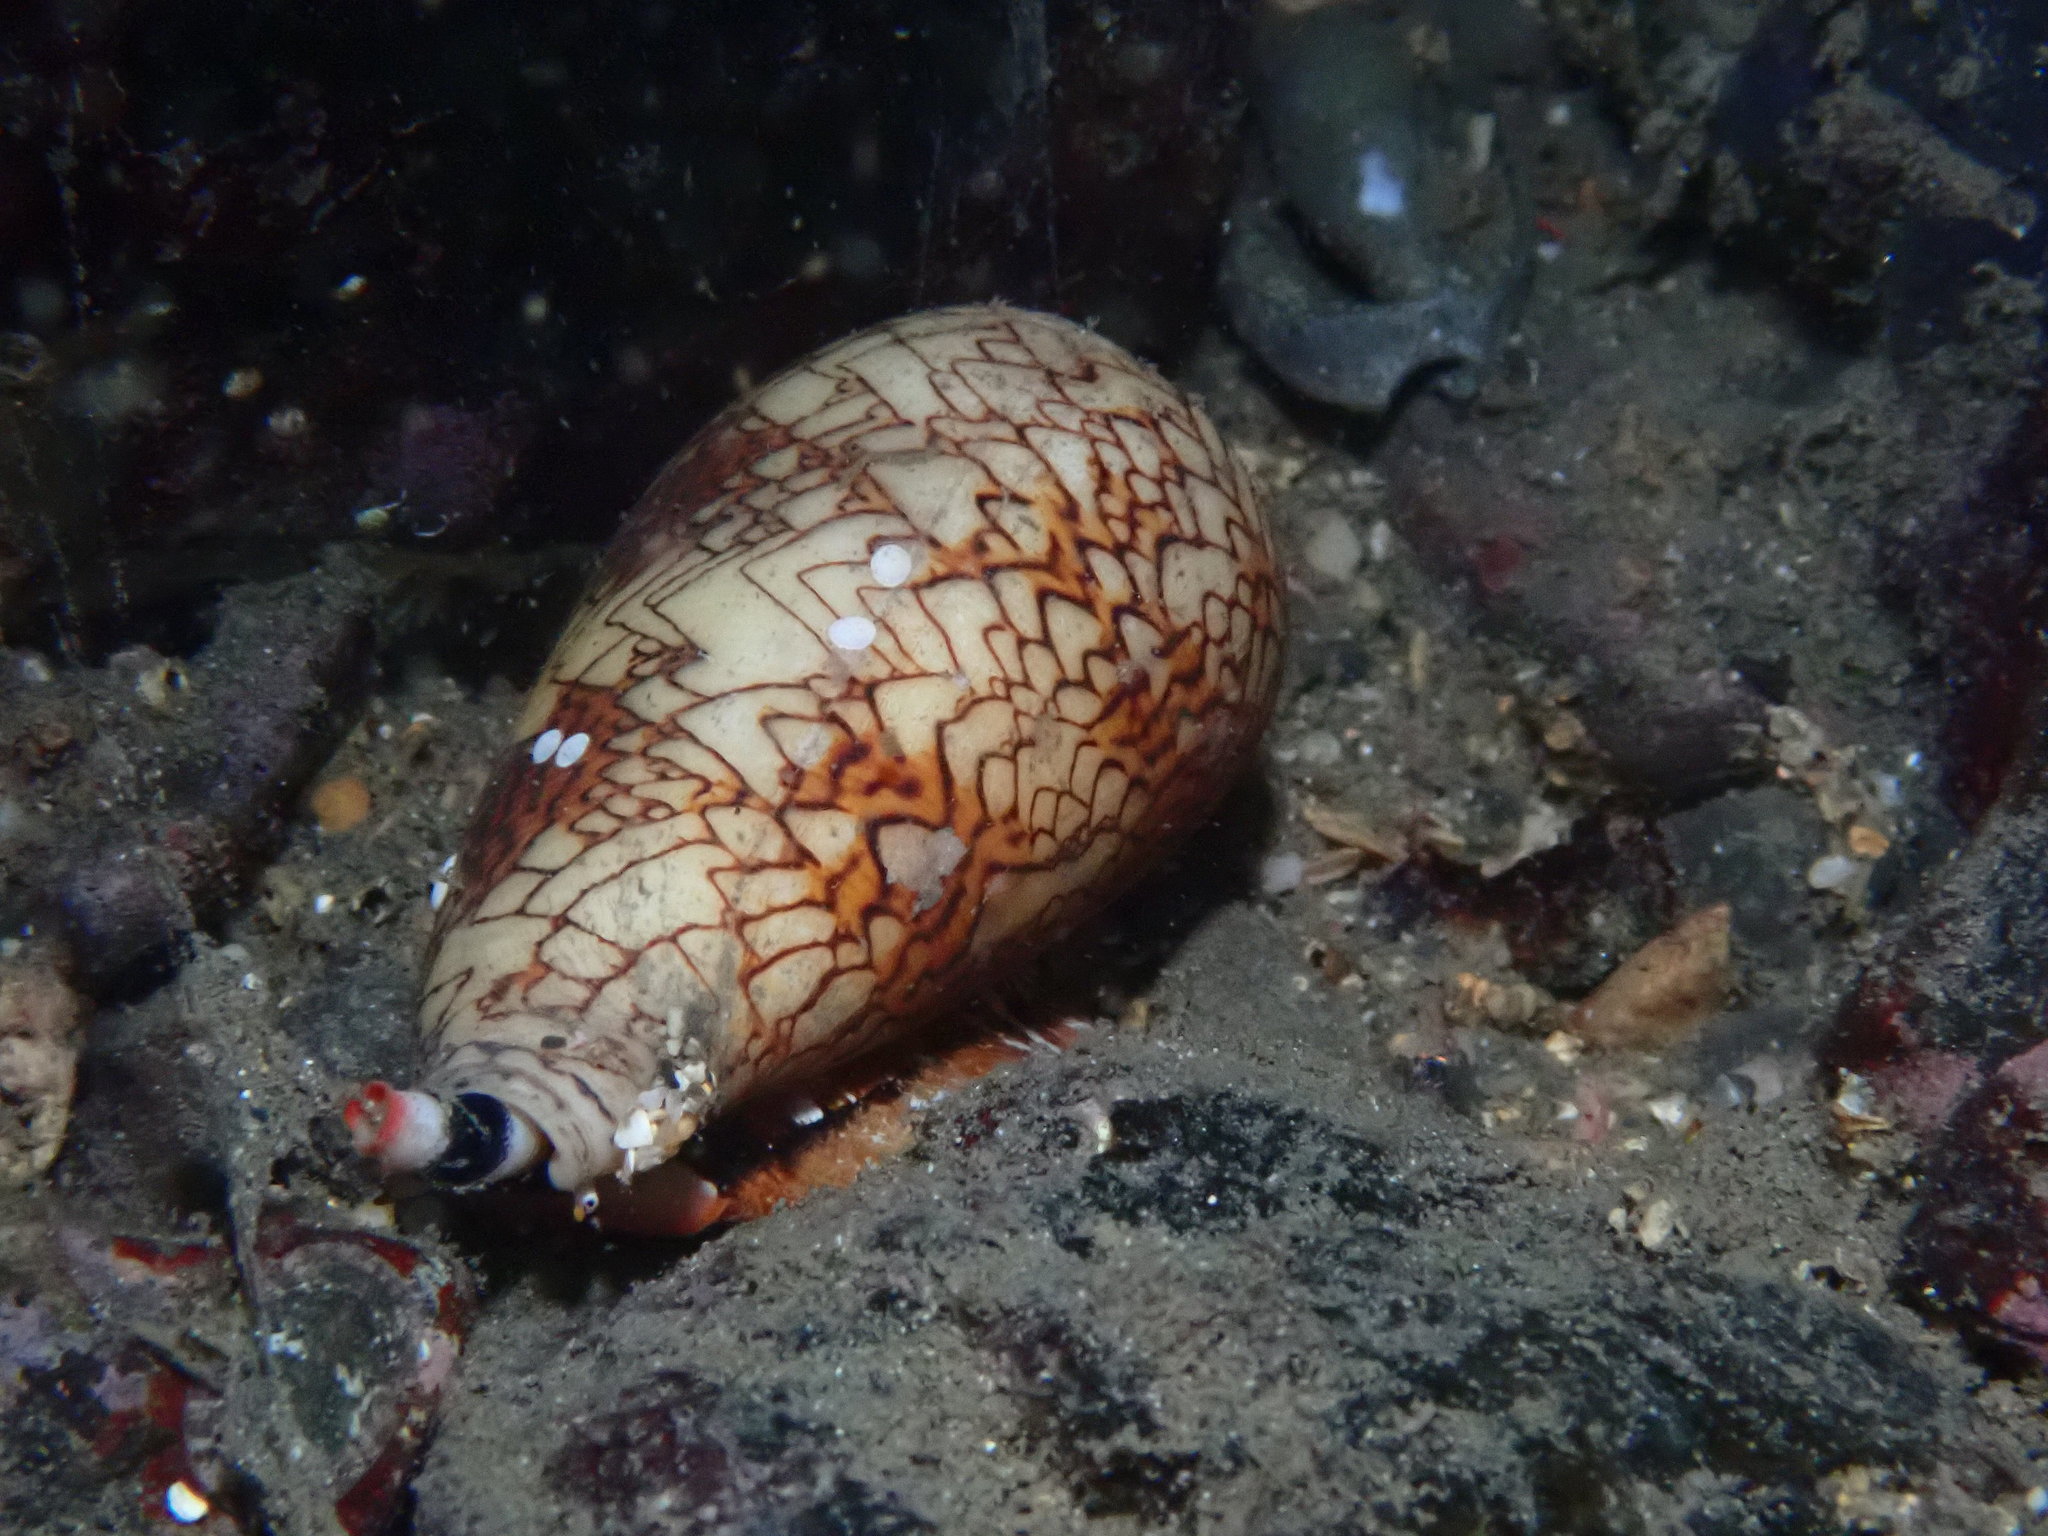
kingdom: Animalia
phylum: Mollusca
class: Gastropoda
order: Neogastropoda
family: Conidae
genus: Conus
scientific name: Conus textile
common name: Cloth-of-gold cone
